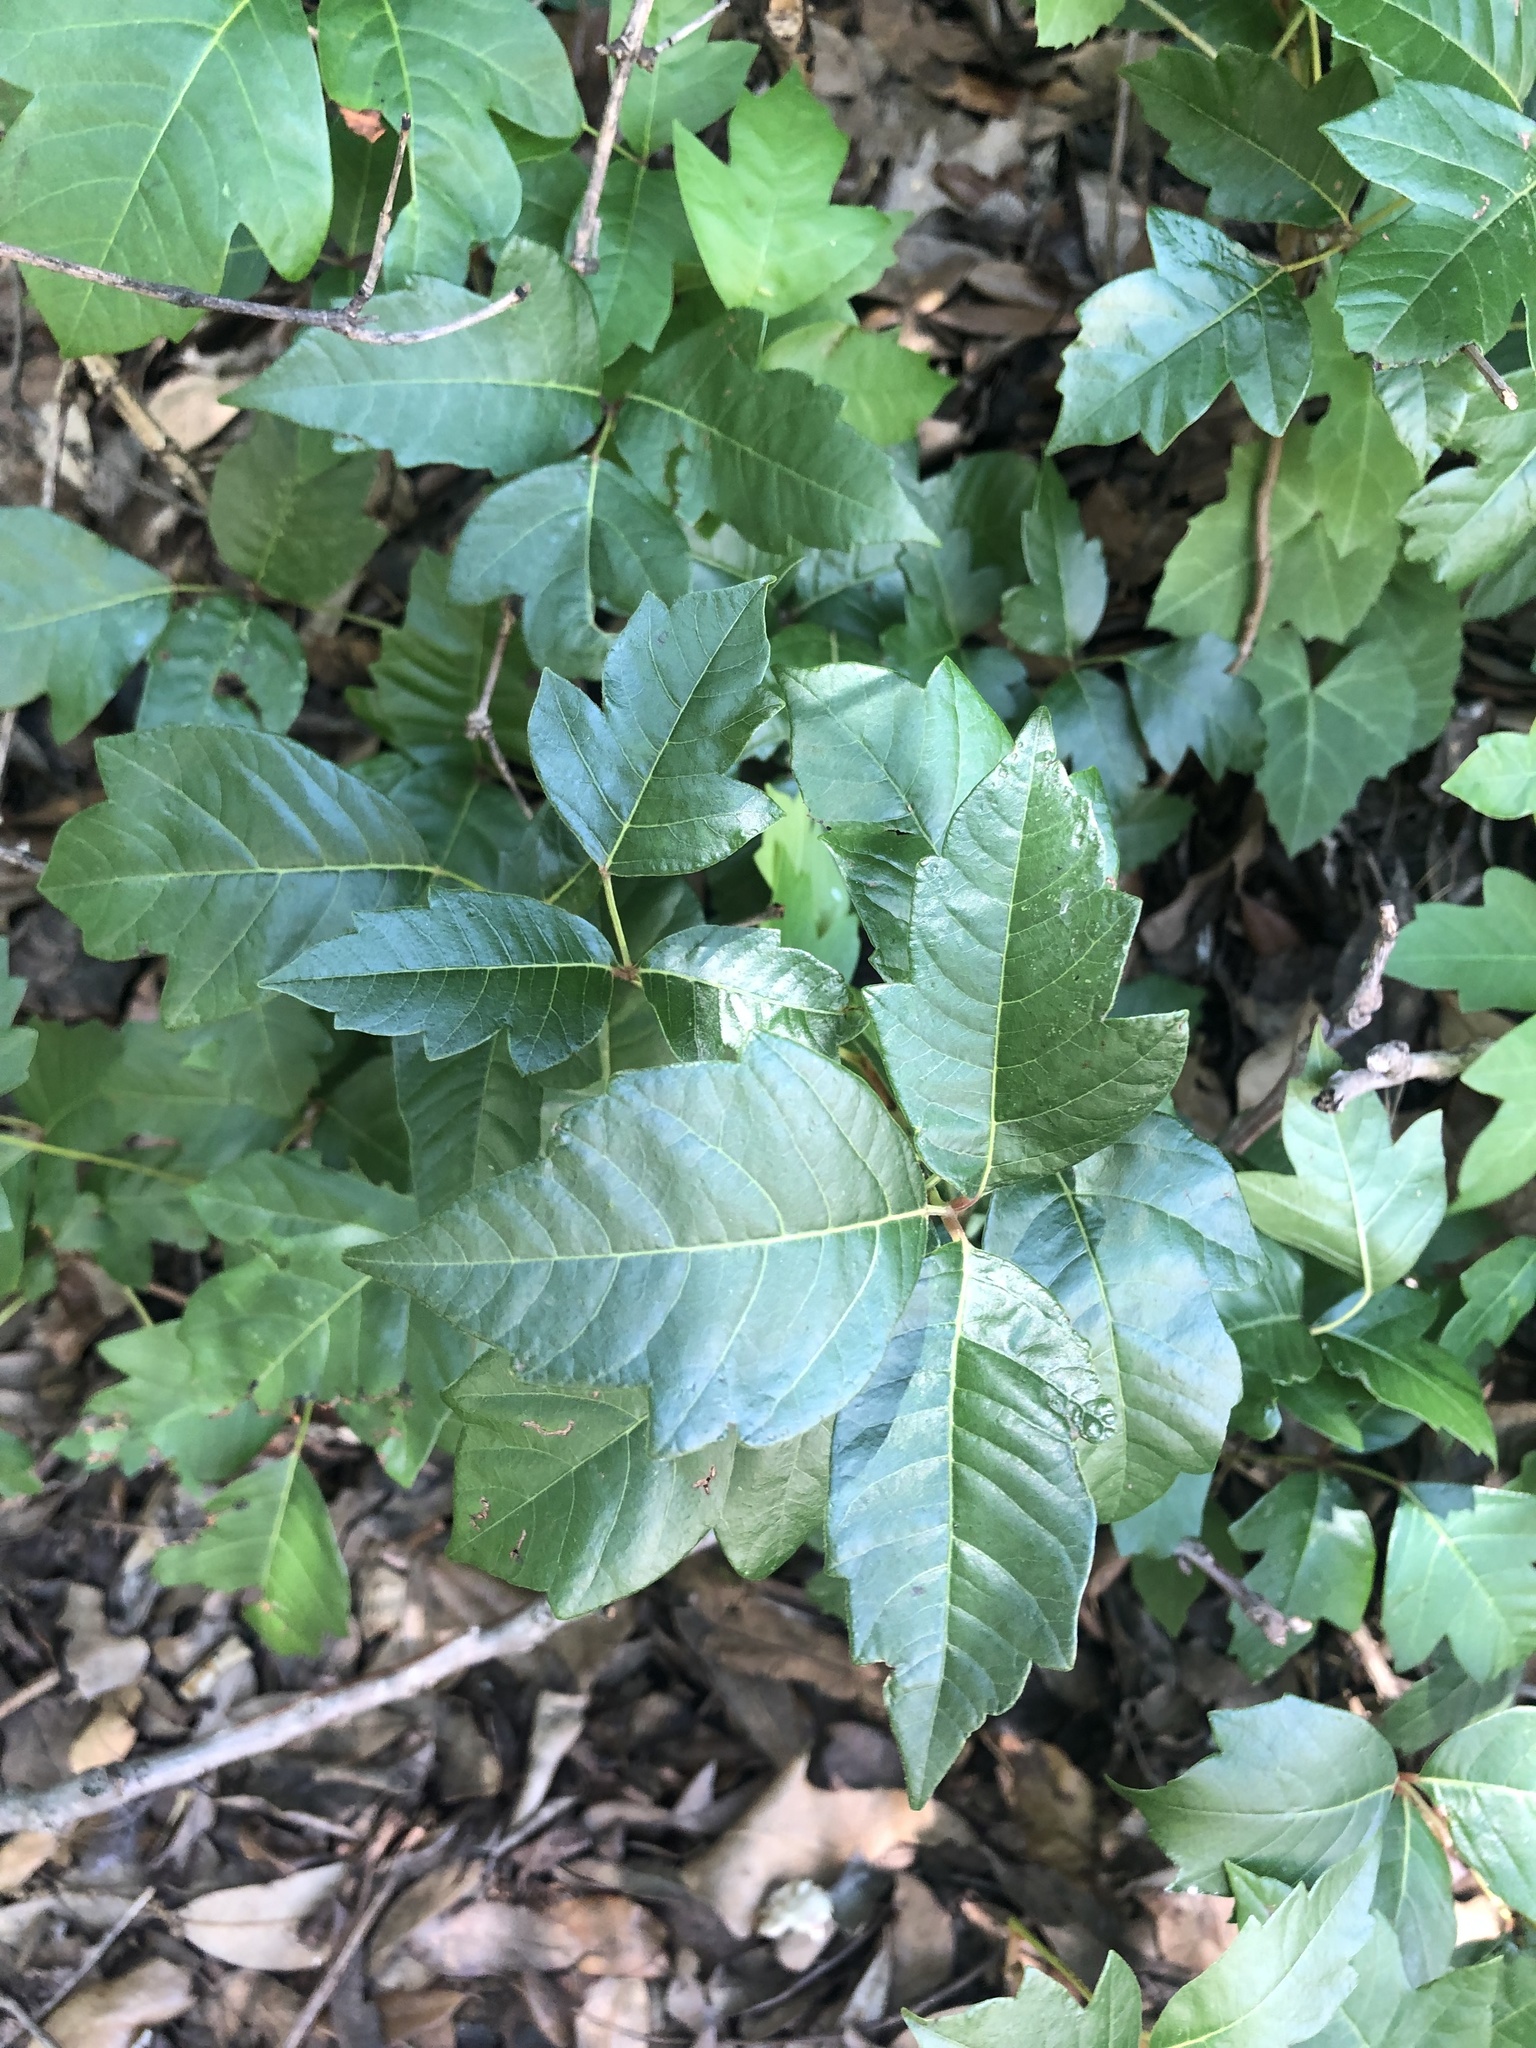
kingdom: Plantae
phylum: Tracheophyta
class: Magnoliopsida
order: Sapindales
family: Anacardiaceae
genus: Toxicodendron
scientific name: Toxicodendron radicans
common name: Poison ivy
